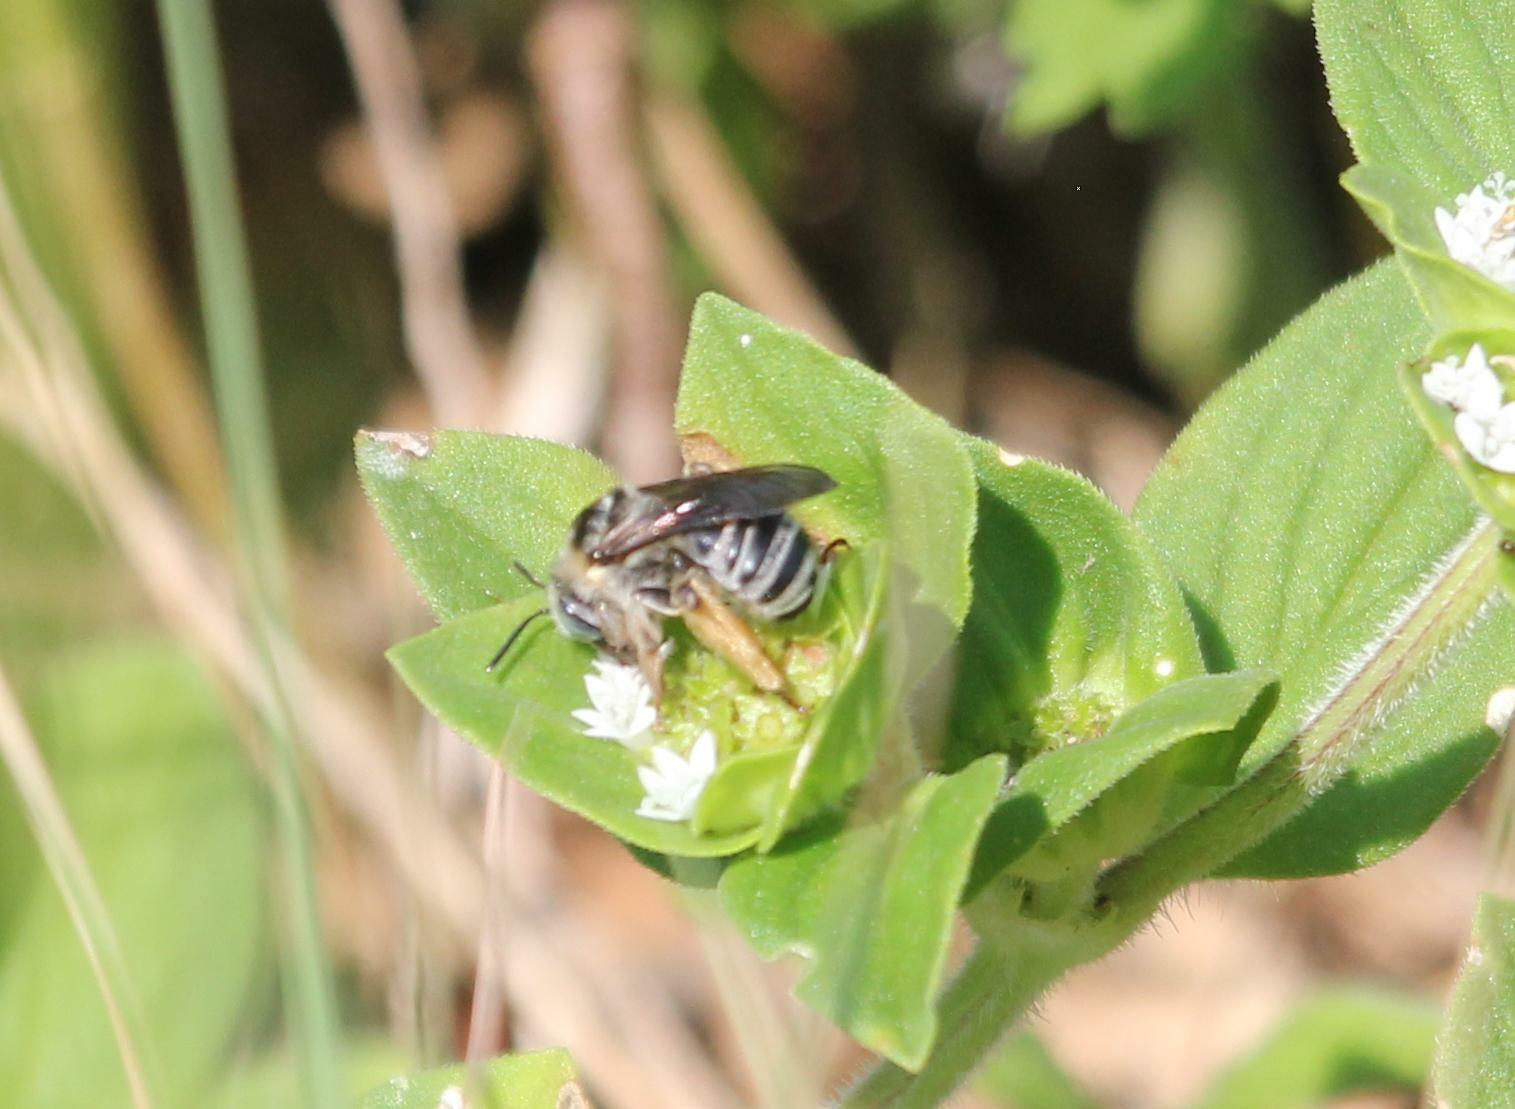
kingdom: Animalia
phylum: Arthropoda
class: Insecta
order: Hymenoptera
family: Apidae
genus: Melissodes
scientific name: Melissodes communis
